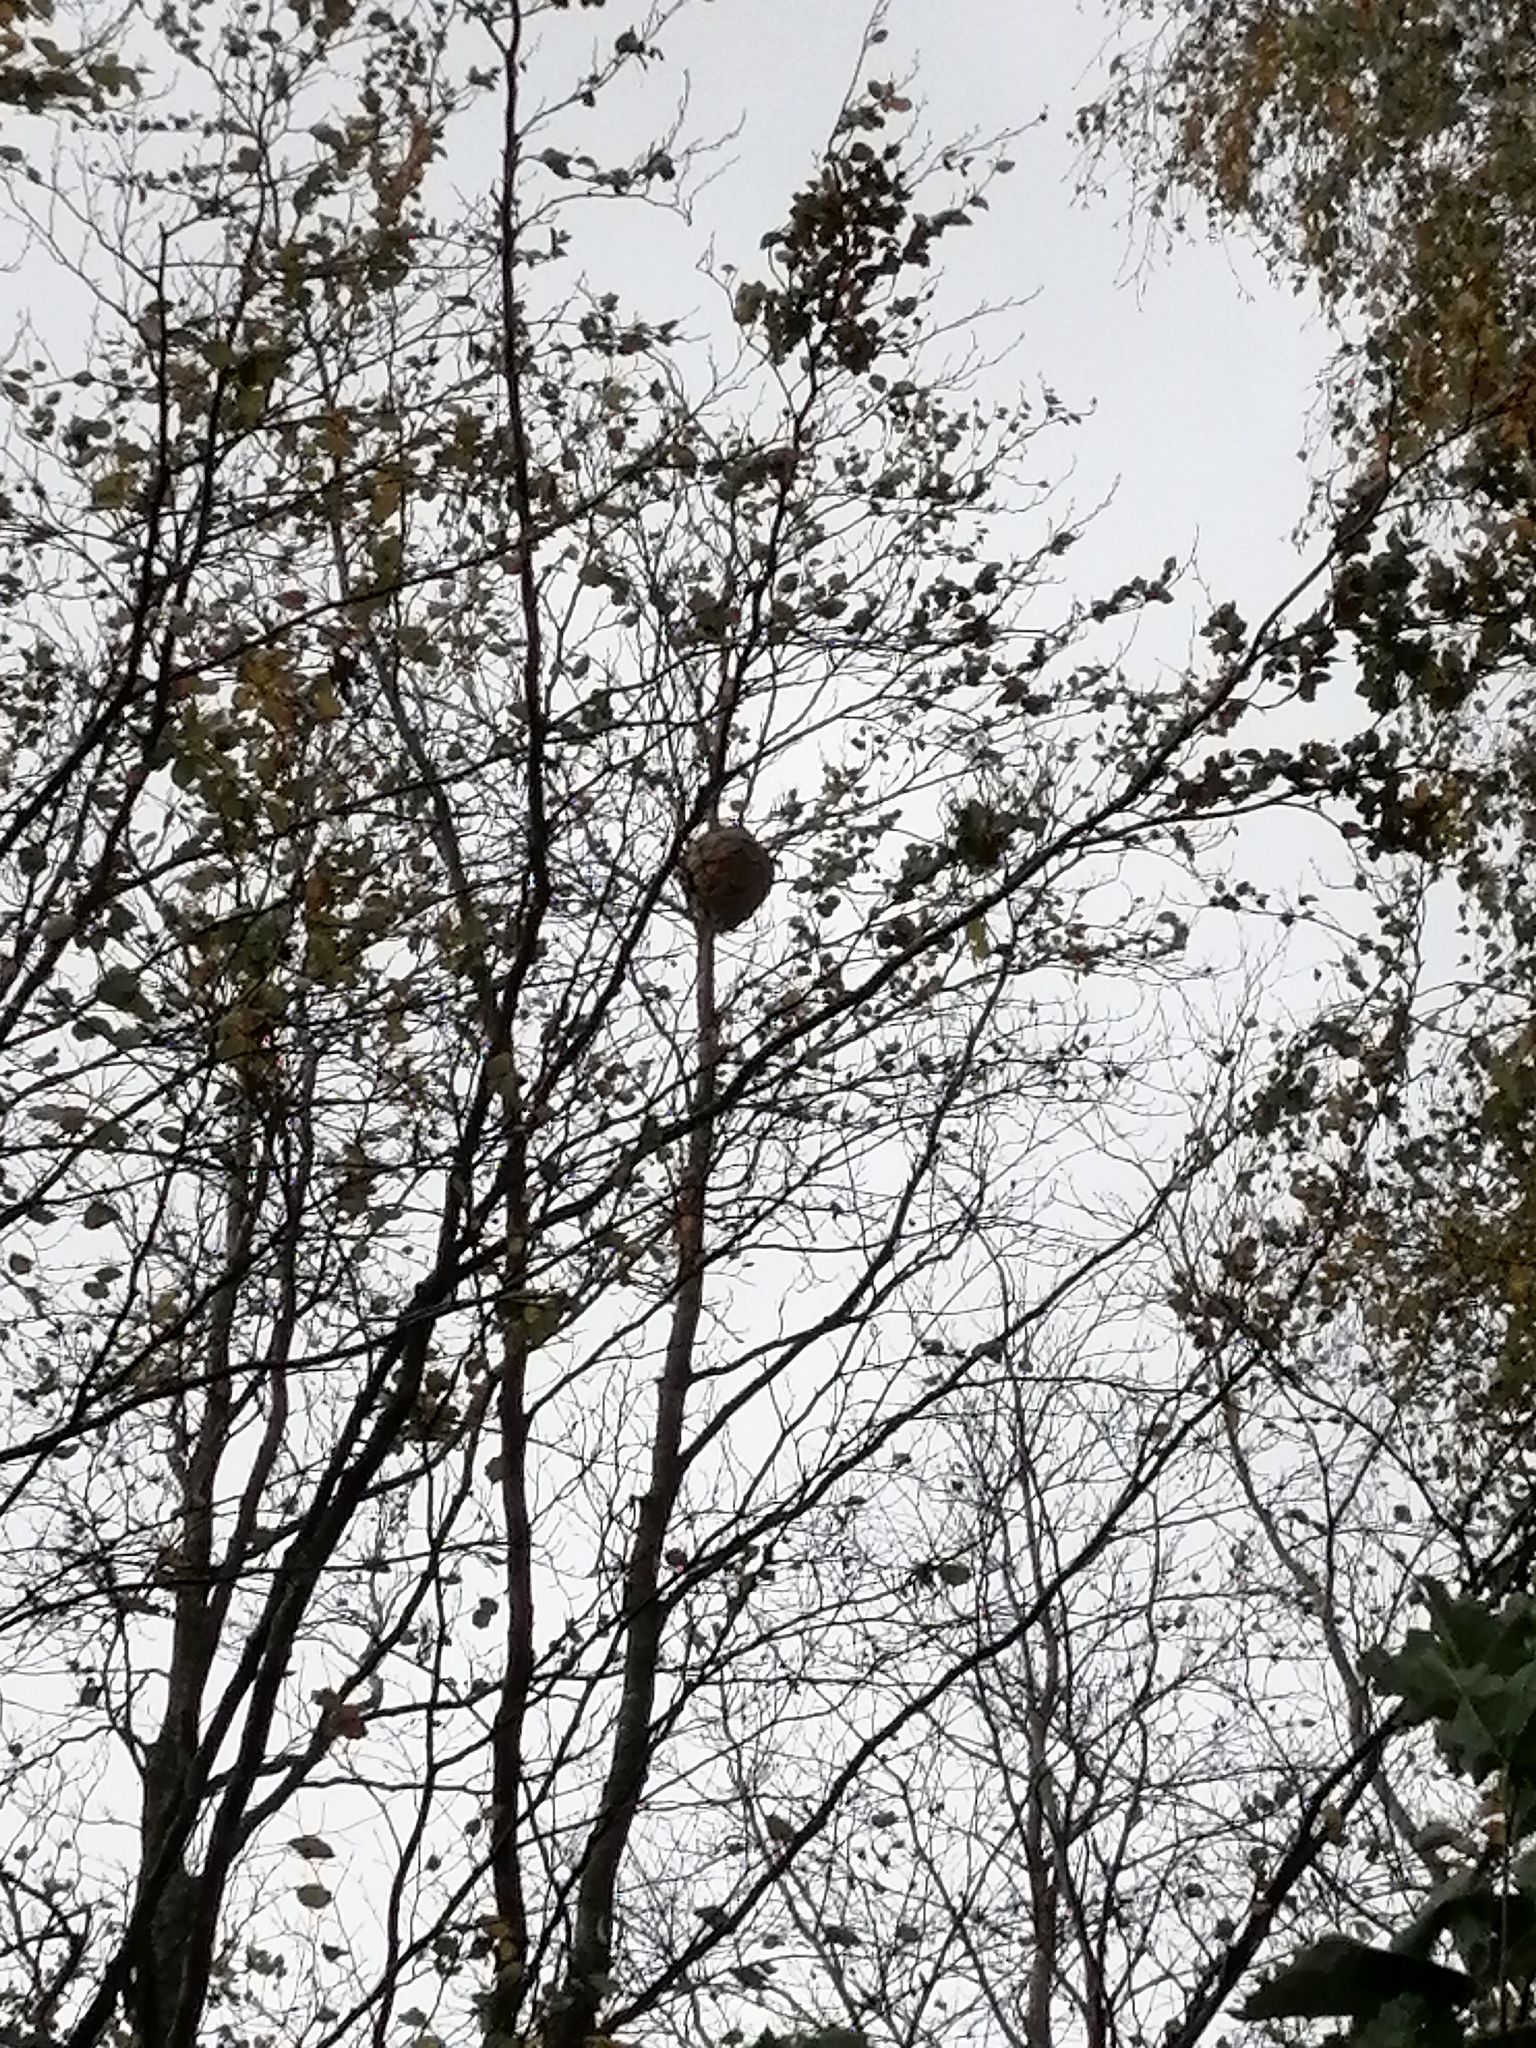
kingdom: Animalia
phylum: Arthropoda
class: Insecta
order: Hymenoptera
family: Vespidae
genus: Vespa
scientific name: Vespa velutina
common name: Asian hornet
